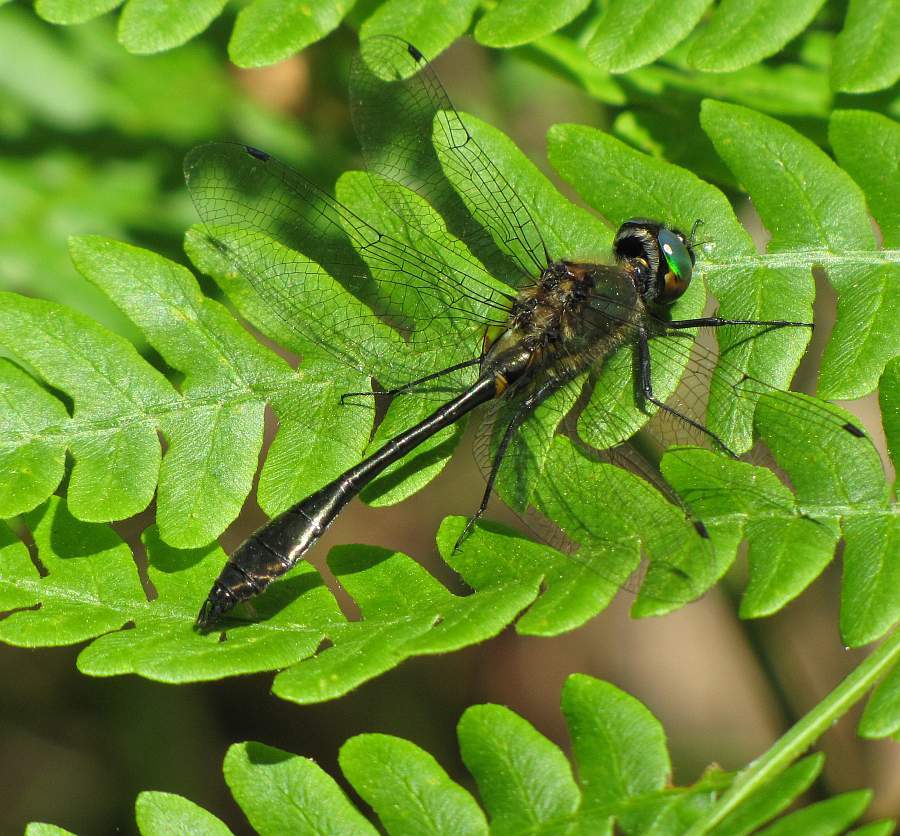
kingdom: Animalia
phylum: Arthropoda
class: Insecta
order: Odonata
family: Corduliidae
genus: Dorocordulia
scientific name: Dorocordulia libera
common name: Racket-tailed emerald
